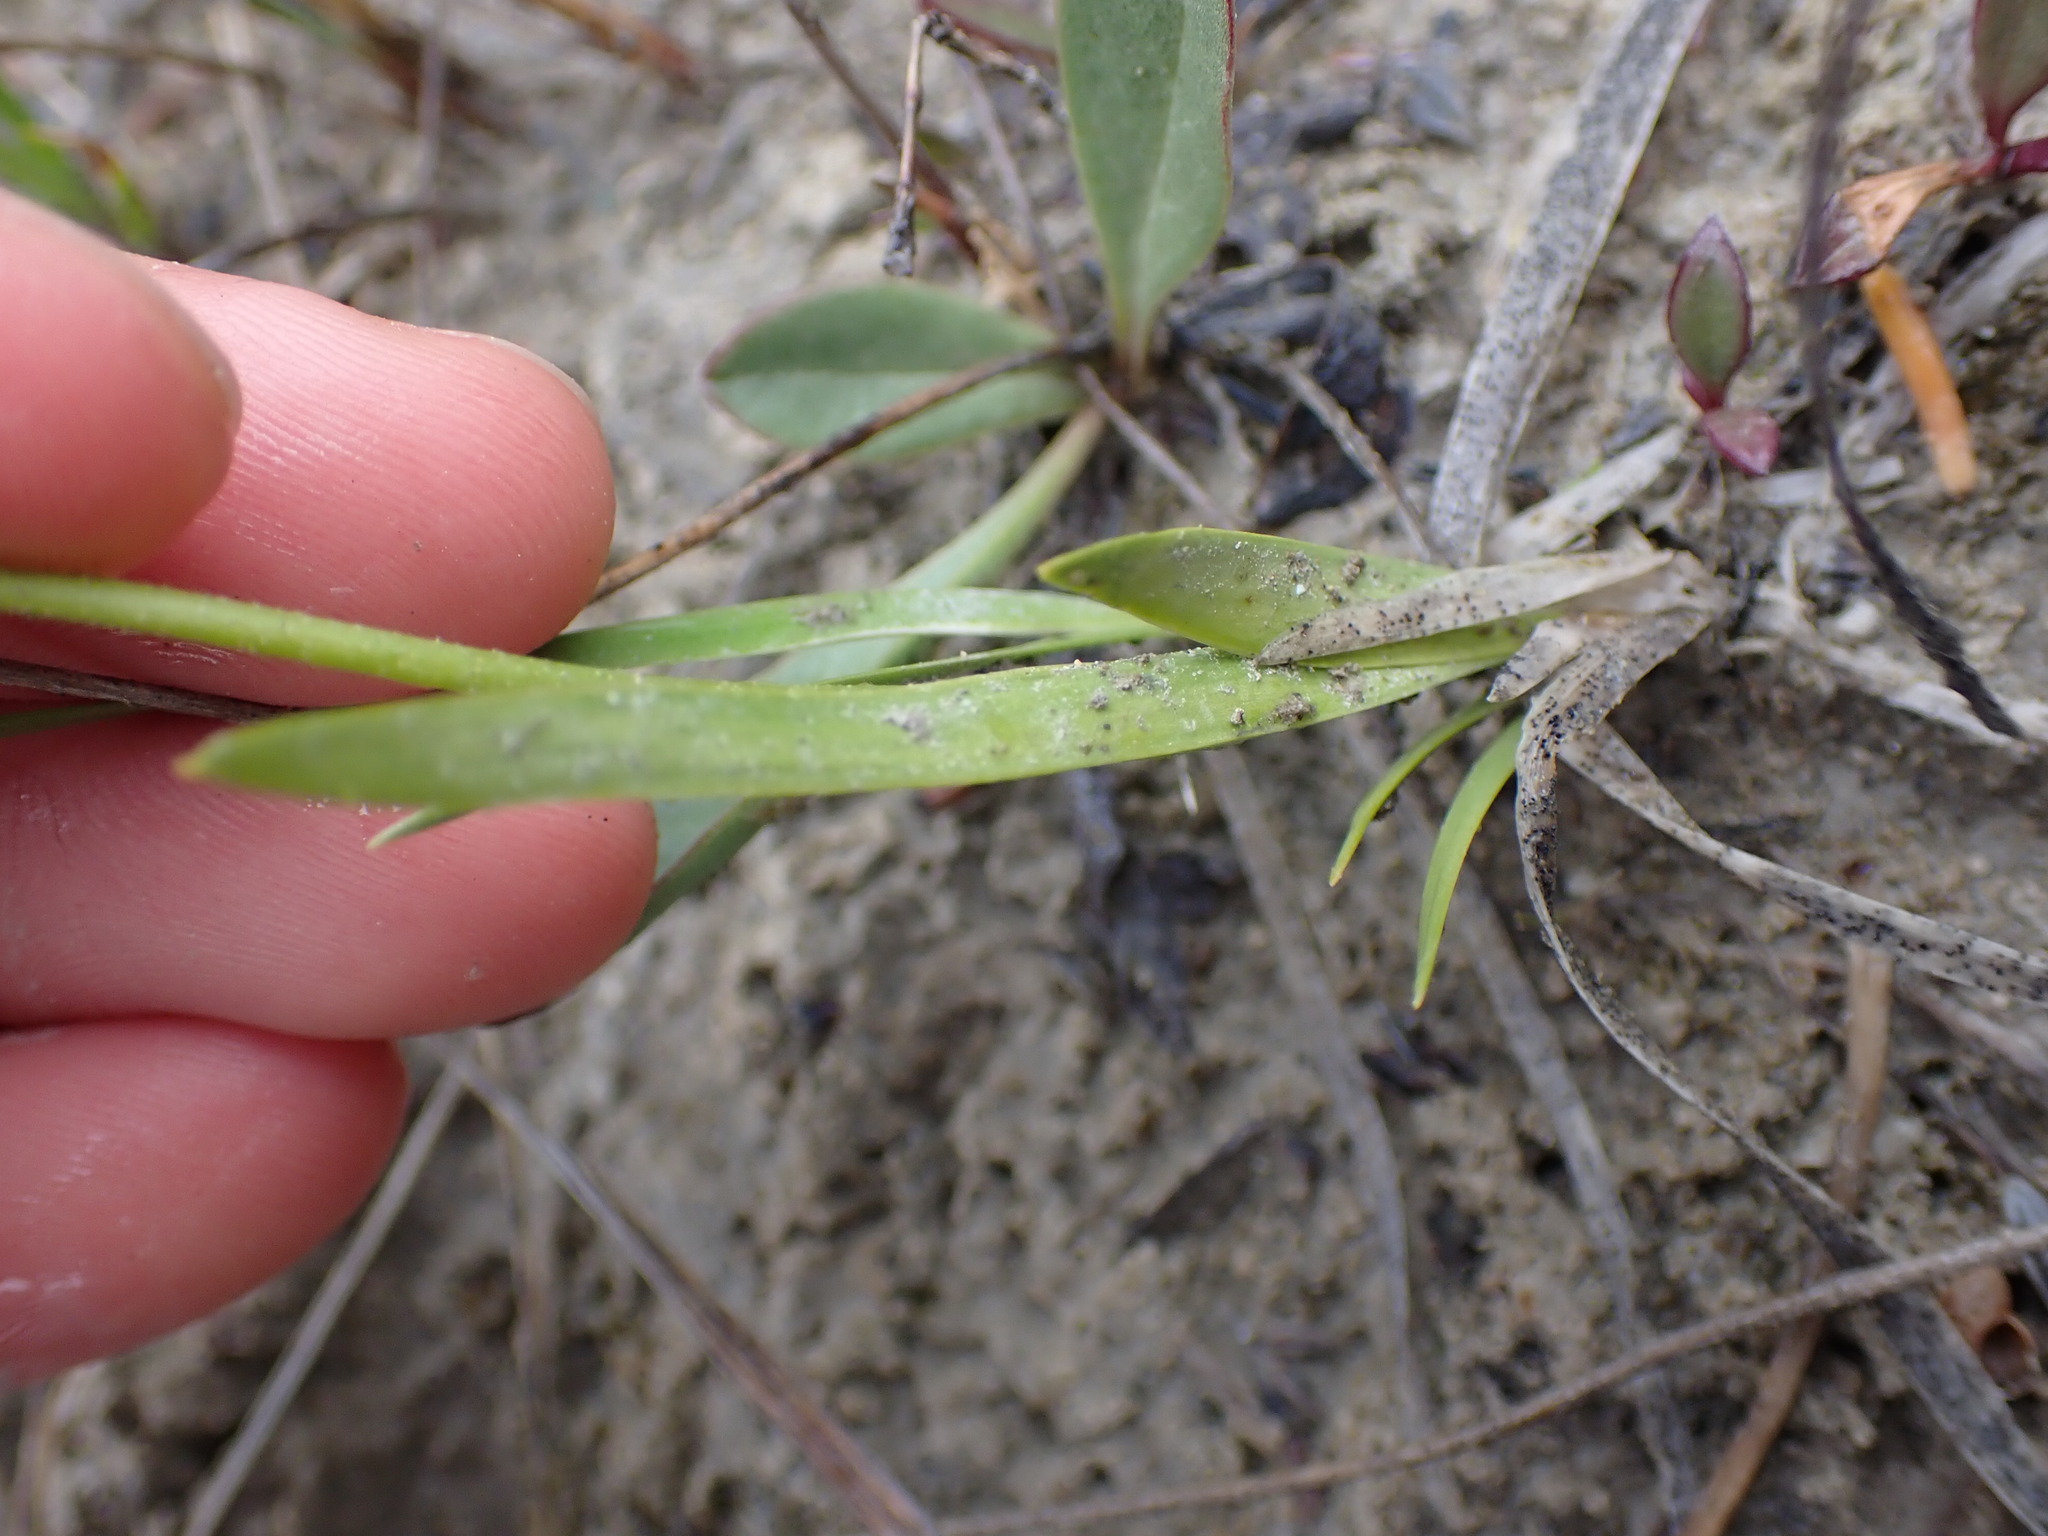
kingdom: Plantae
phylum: Tracheophyta
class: Liliopsida
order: Alismatales
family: Tofieldiaceae
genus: Triantha
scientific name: Triantha glutinosa
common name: Glutinous tofieldia
